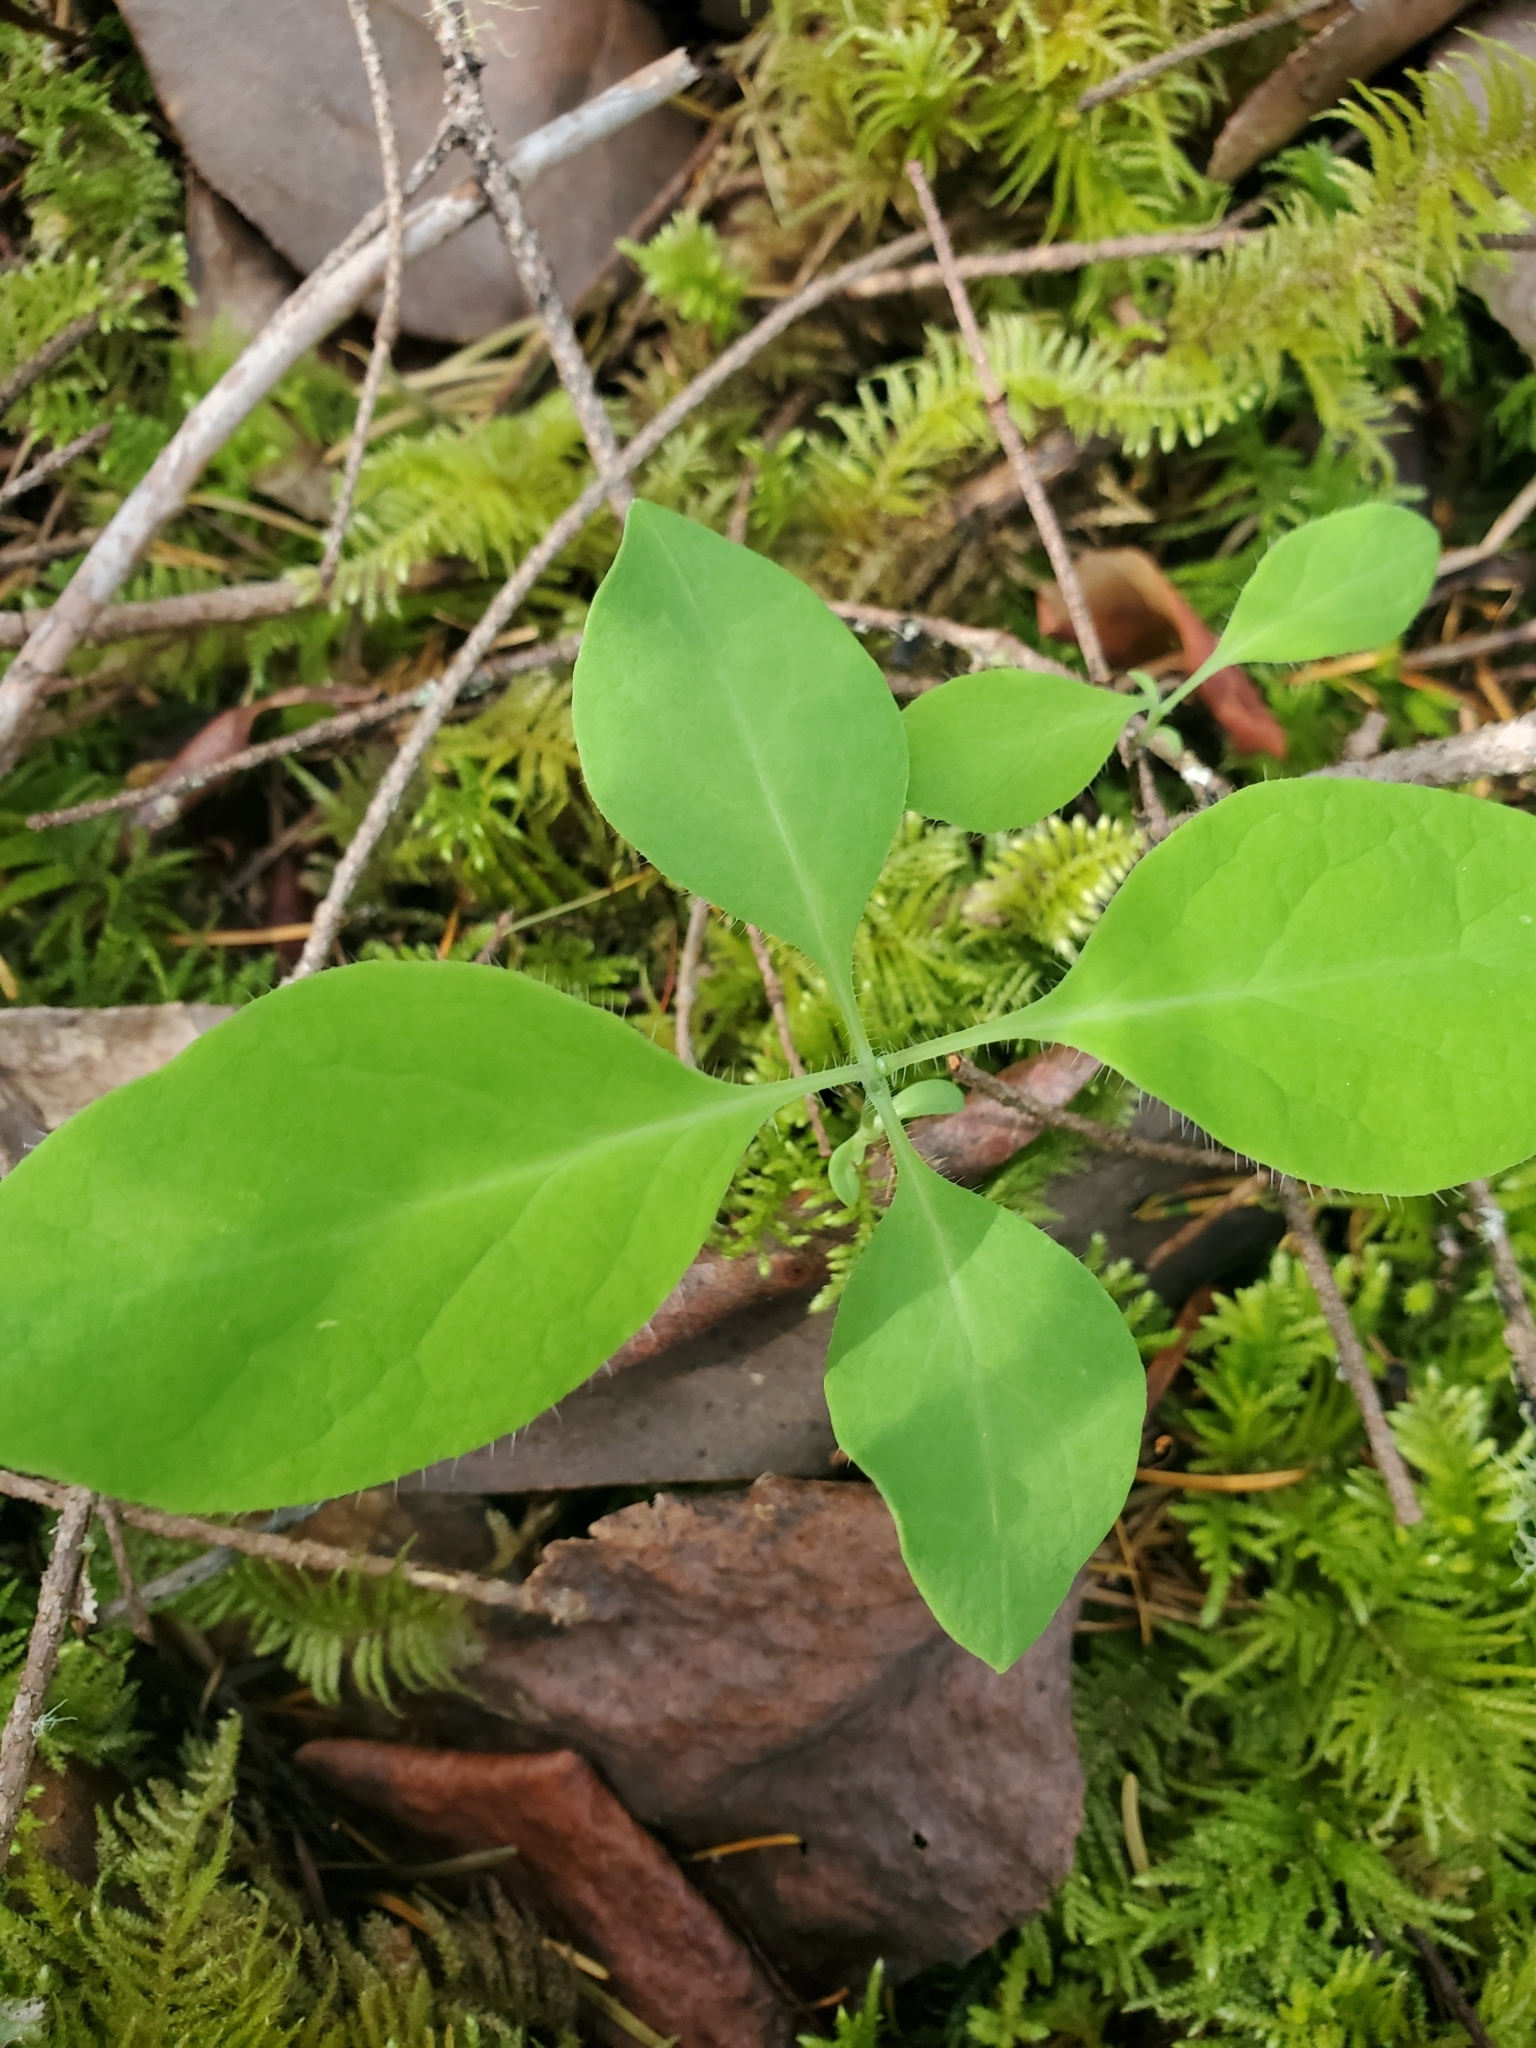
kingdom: Plantae
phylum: Tracheophyta
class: Magnoliopsida
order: Dipsacales
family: Caprifoliaceae
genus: Lonicera
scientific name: Lonicera ciliosa
